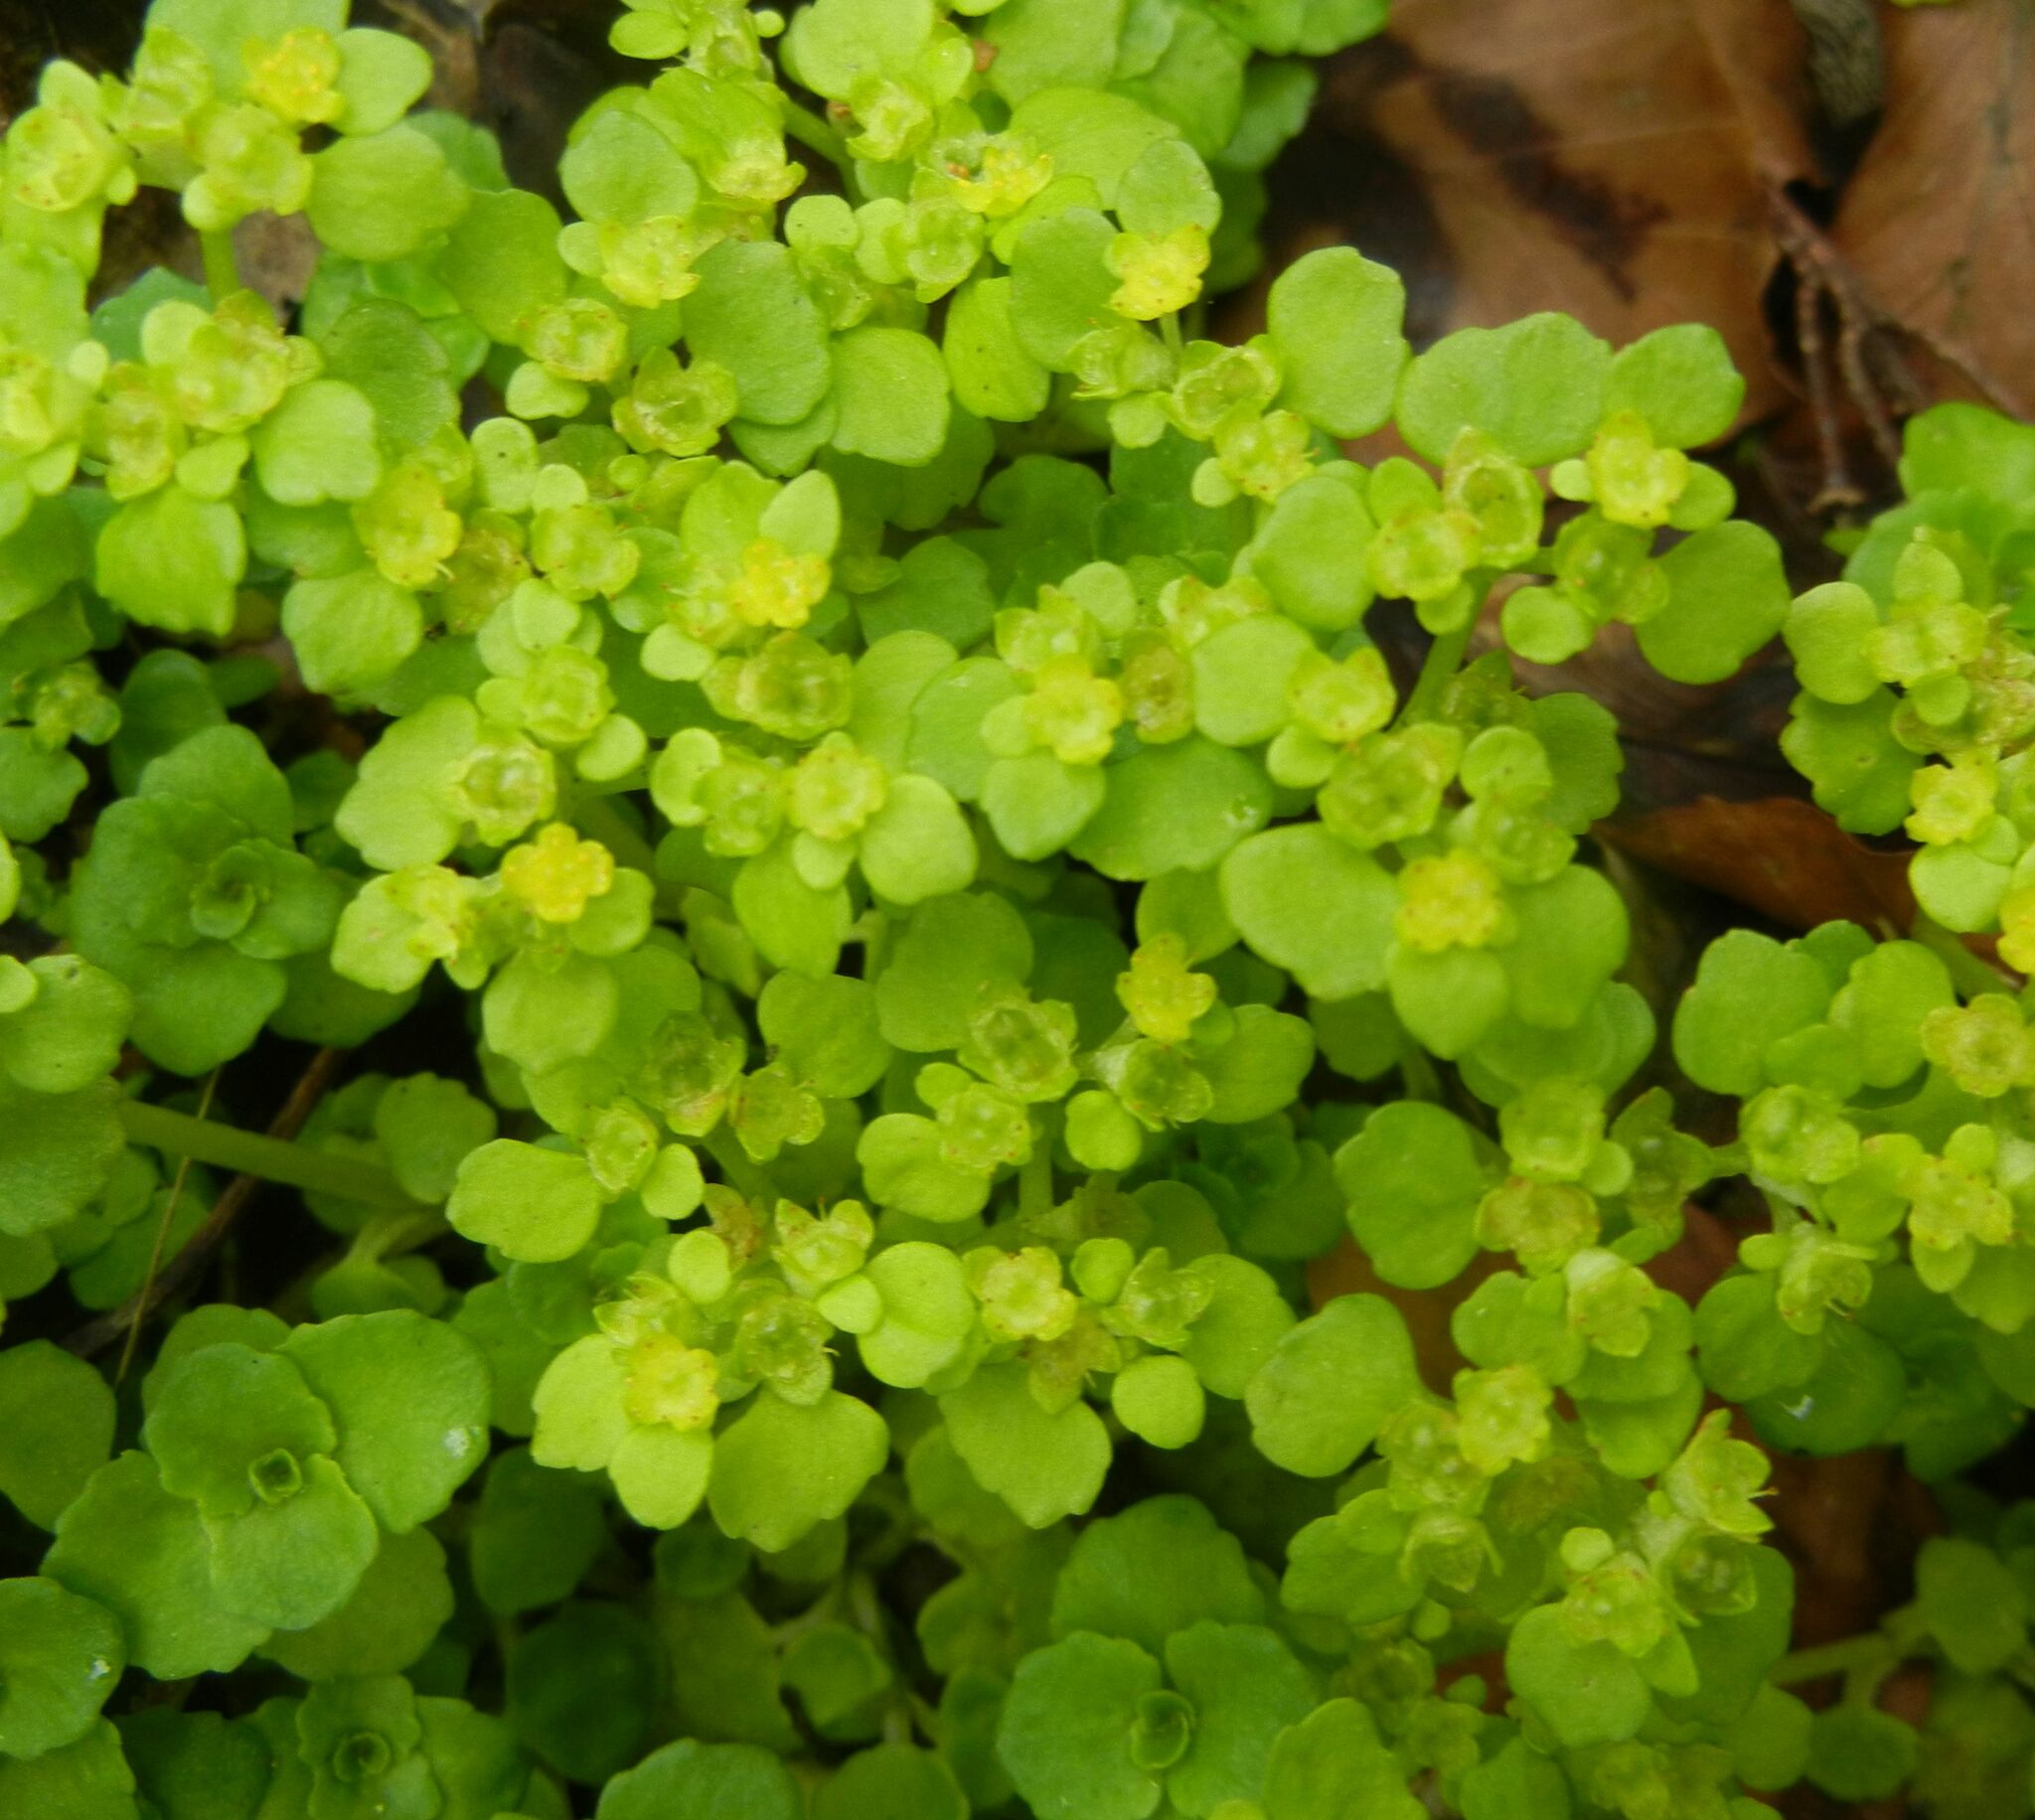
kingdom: Plantae
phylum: Tracheophyta
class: Magnoliopsida
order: Saxifragales
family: Saxifragaceae
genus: Chrysosplenium
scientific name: Chrysosplenium oppositifolium
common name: Opposite-leaved golden-saxifrage
